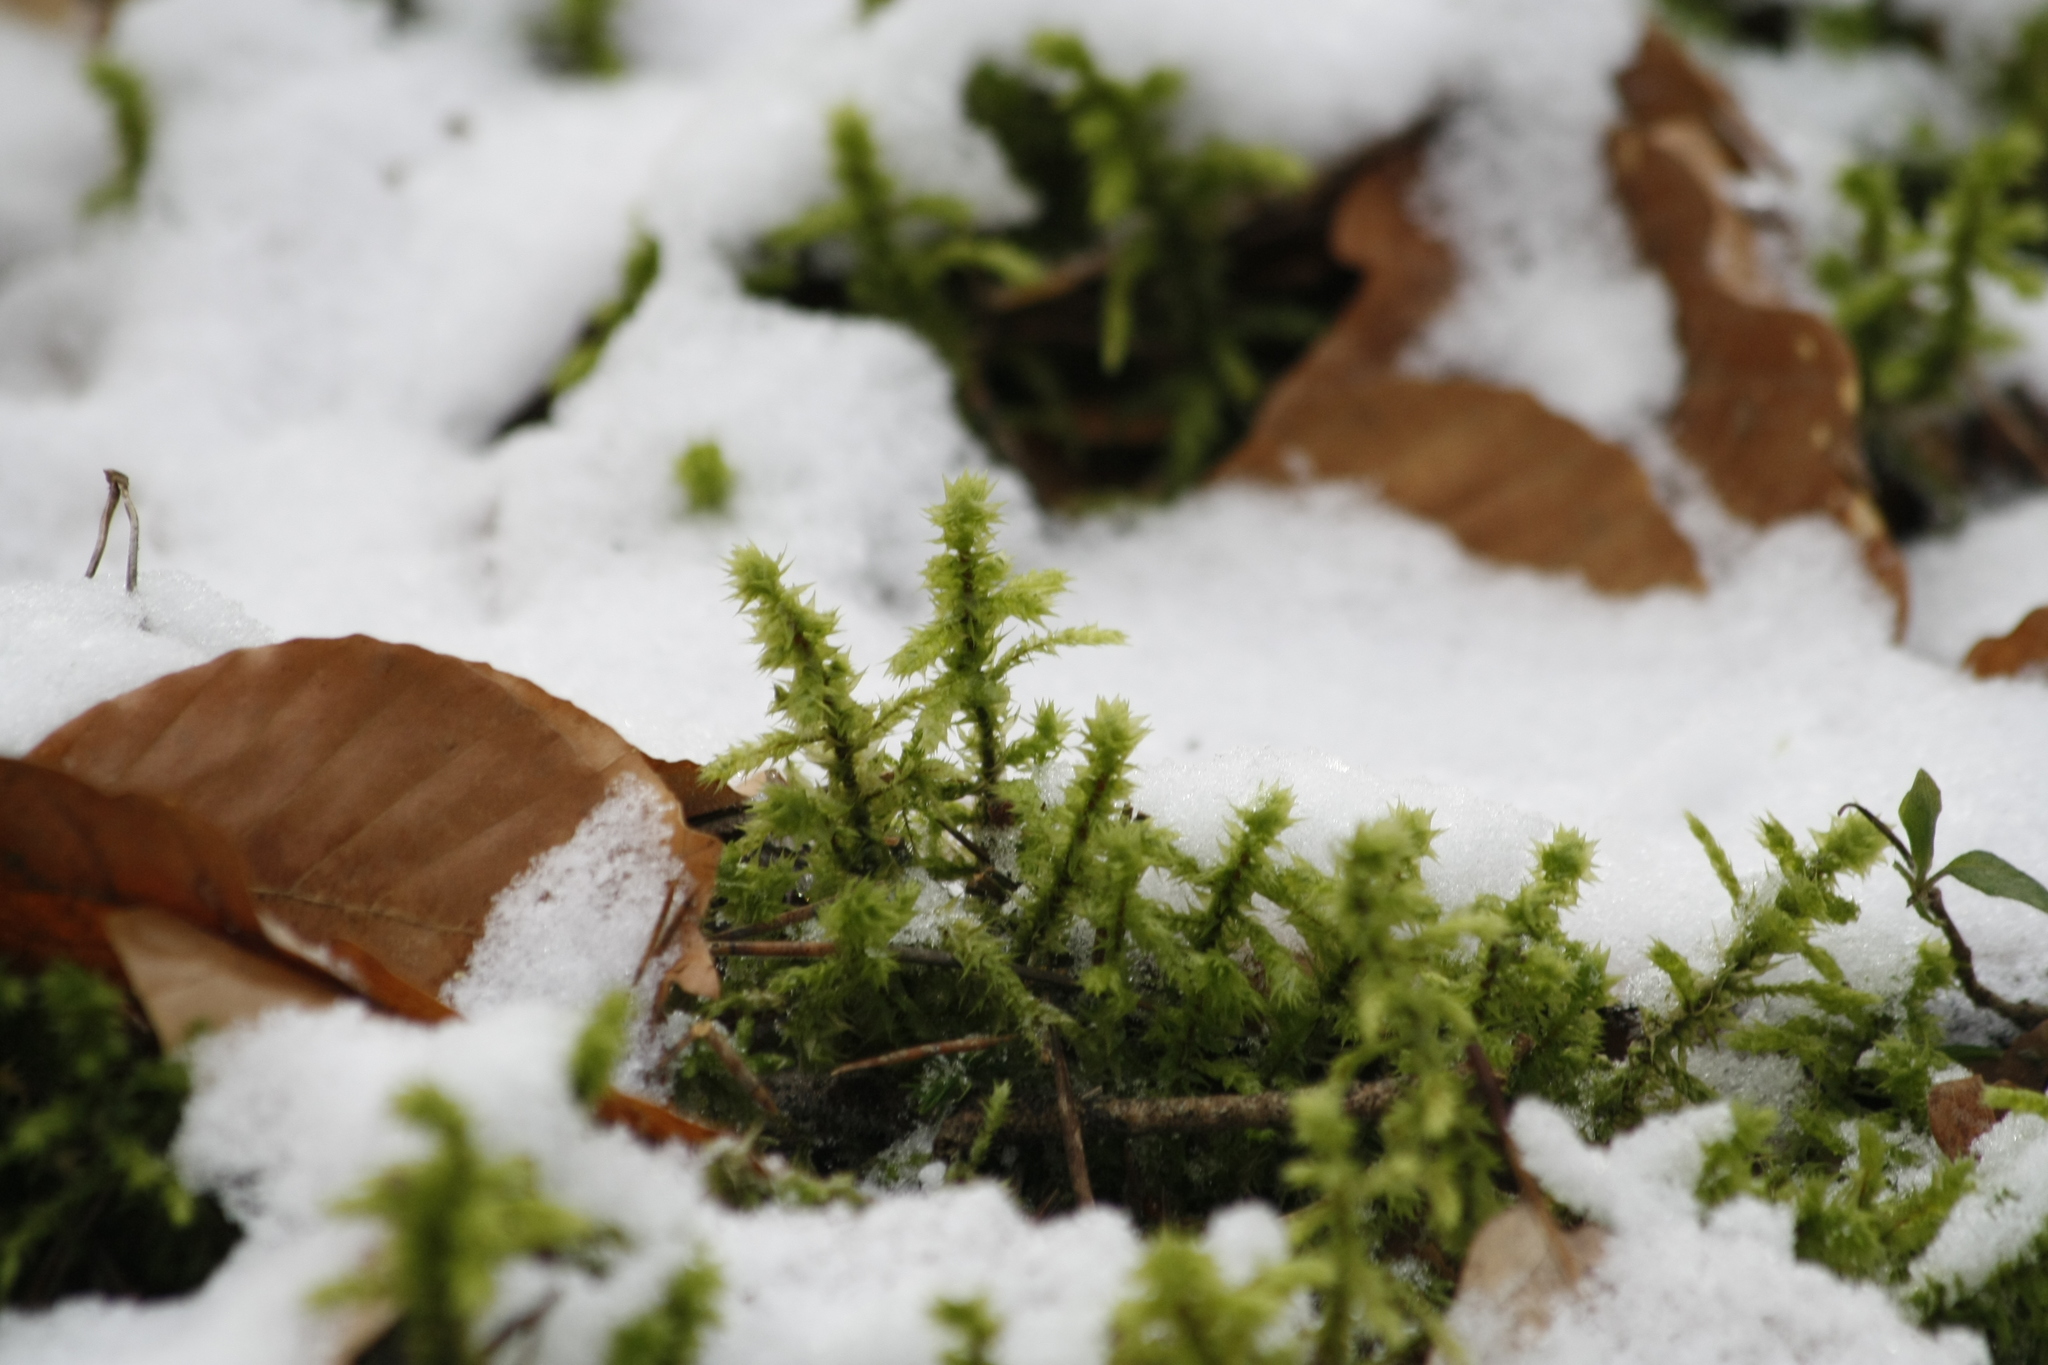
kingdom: Plantae
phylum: Bryophyta
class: Bryopsida
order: Hypnales
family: Hylocomiaceae
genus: Hylocomiadelphus
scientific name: Hylocomiadelphus triquetrus
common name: Rough goose neck moss
